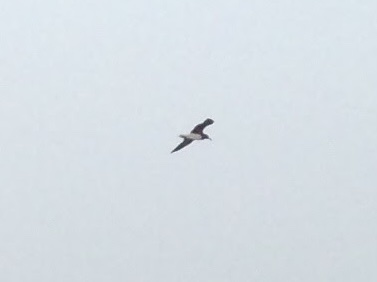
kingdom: Animalia
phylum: Chordata
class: Aves
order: Charadriiformes
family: Laridae
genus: Ichthyaetus
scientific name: Ichthyaetus hemprichii
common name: Sooty gull
